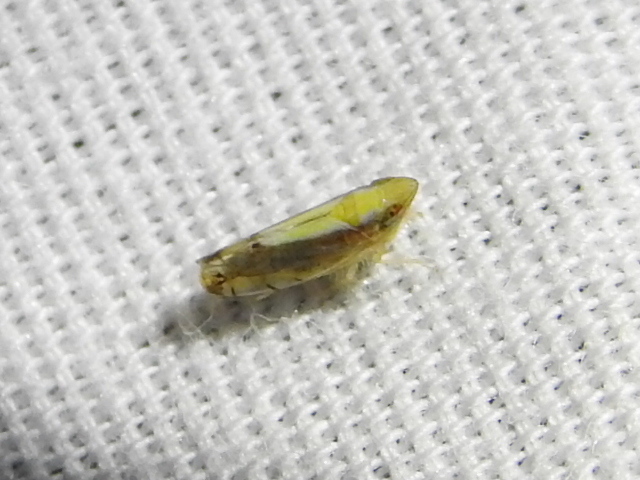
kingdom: Animalia
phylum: Arthropoda
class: Insecta
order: Hemiptera
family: Cicadellidae
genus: Scaphytopius
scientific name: Scaphytopius elegans
